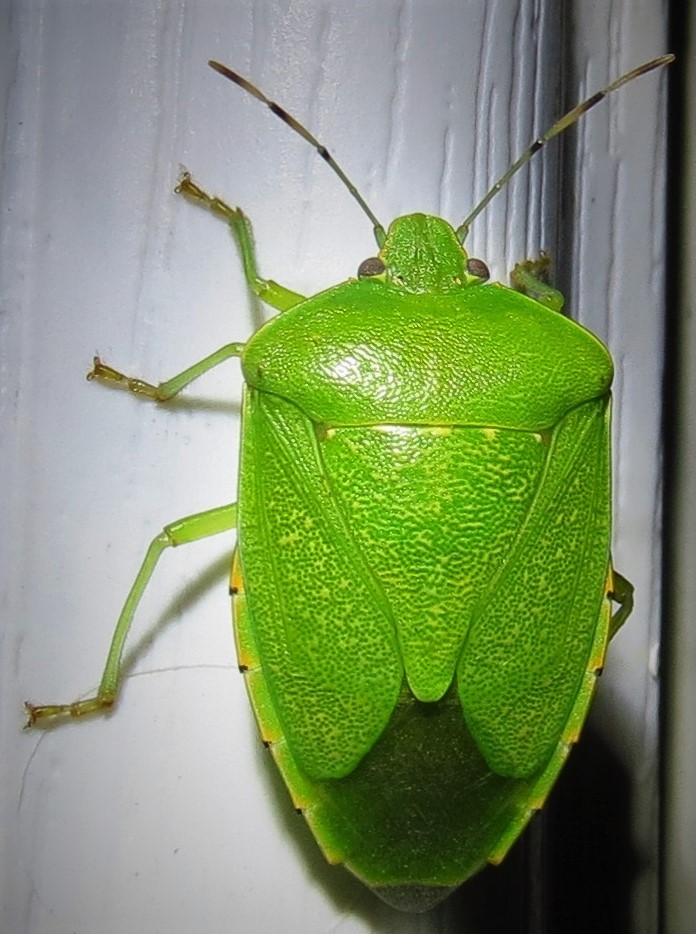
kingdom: Animalia
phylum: Arthropoda
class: Insecta
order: Hemiptera
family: Pentatomidae
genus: Chinavia
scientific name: Chinavia hilaris
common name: Green stink bug
